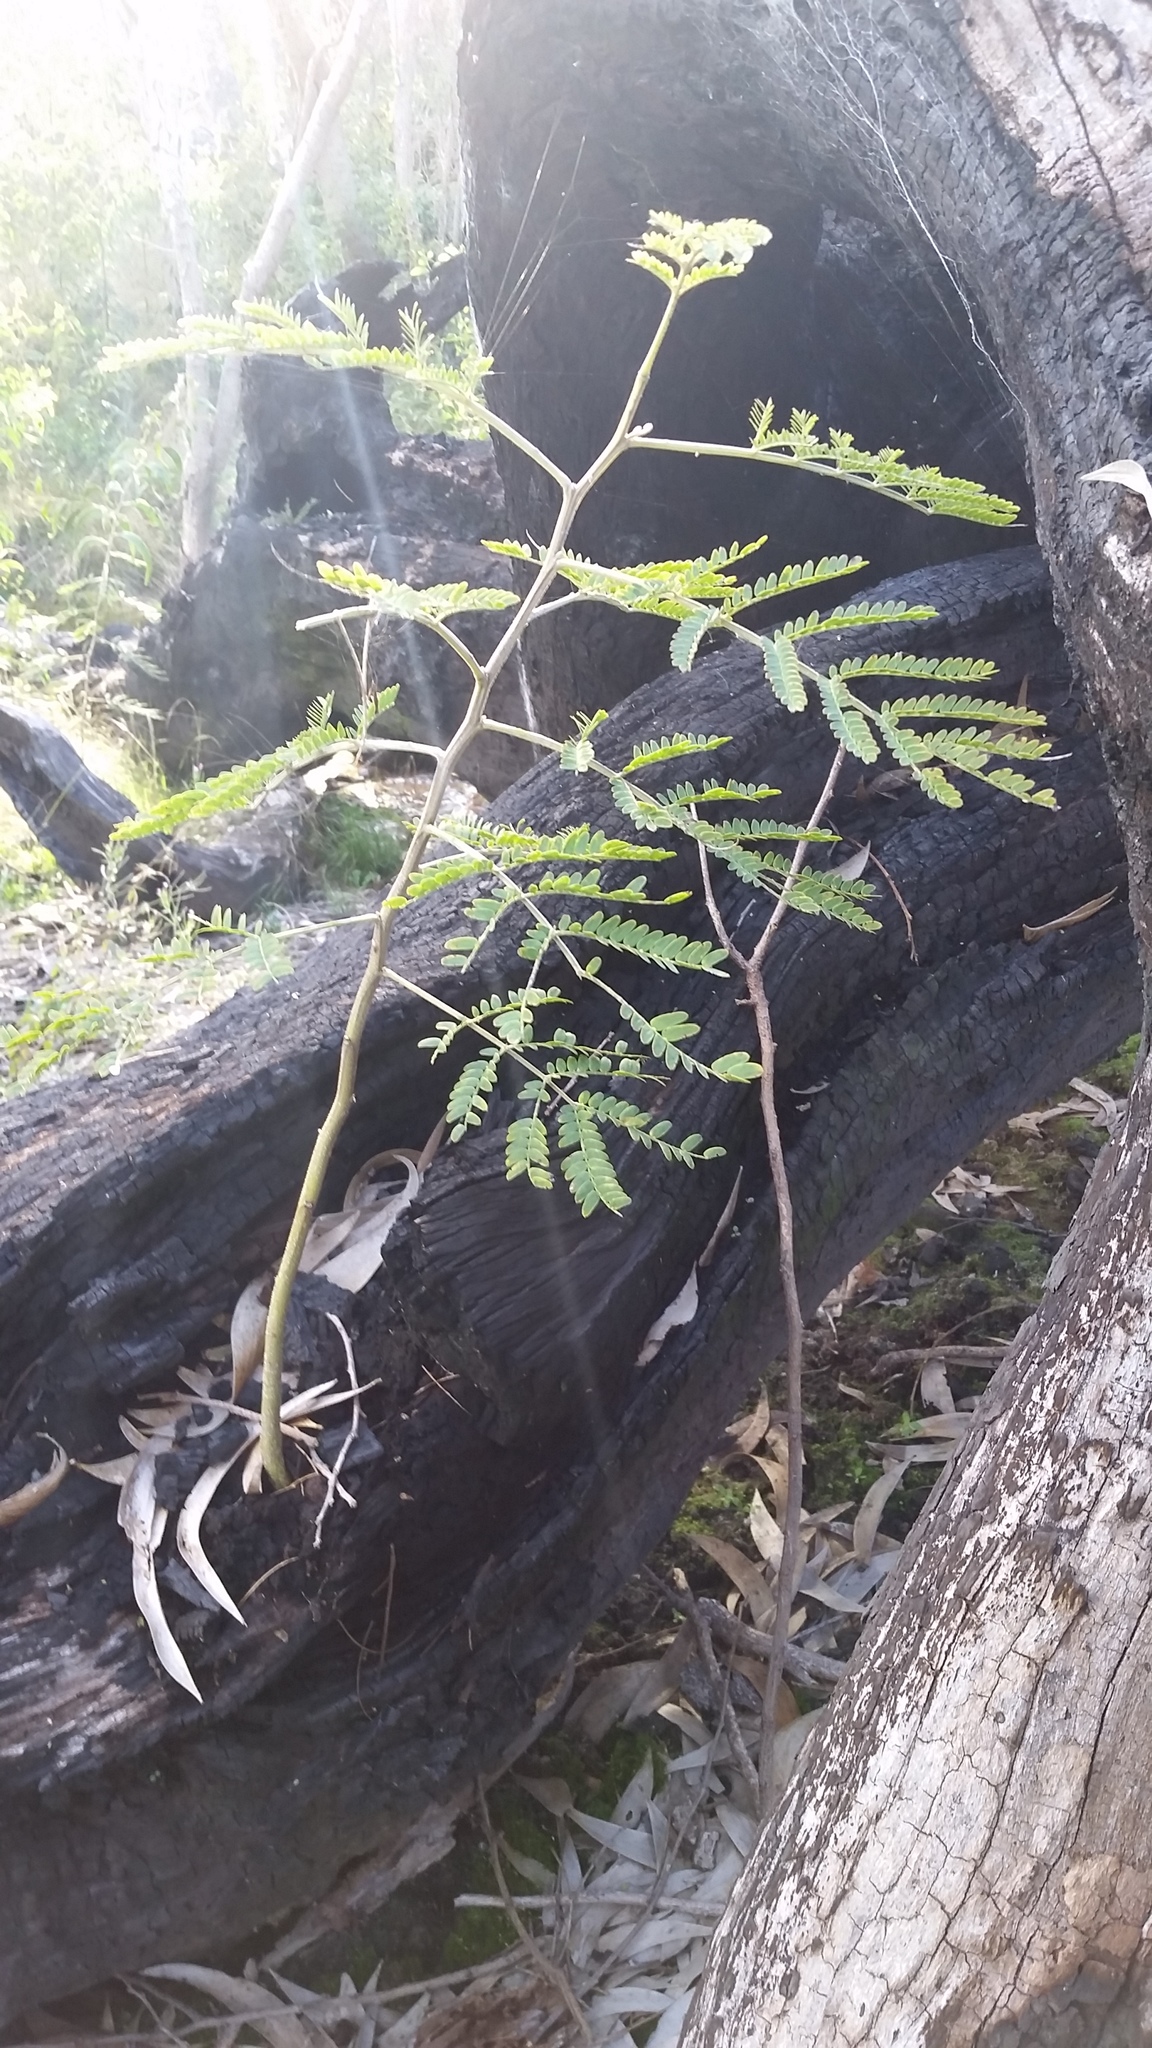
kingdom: Plantae
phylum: Tracheophyta
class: Magnoliopsida
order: Fabales
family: Fabaceae
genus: Acacia
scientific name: Acacia koa
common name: Gray koa
